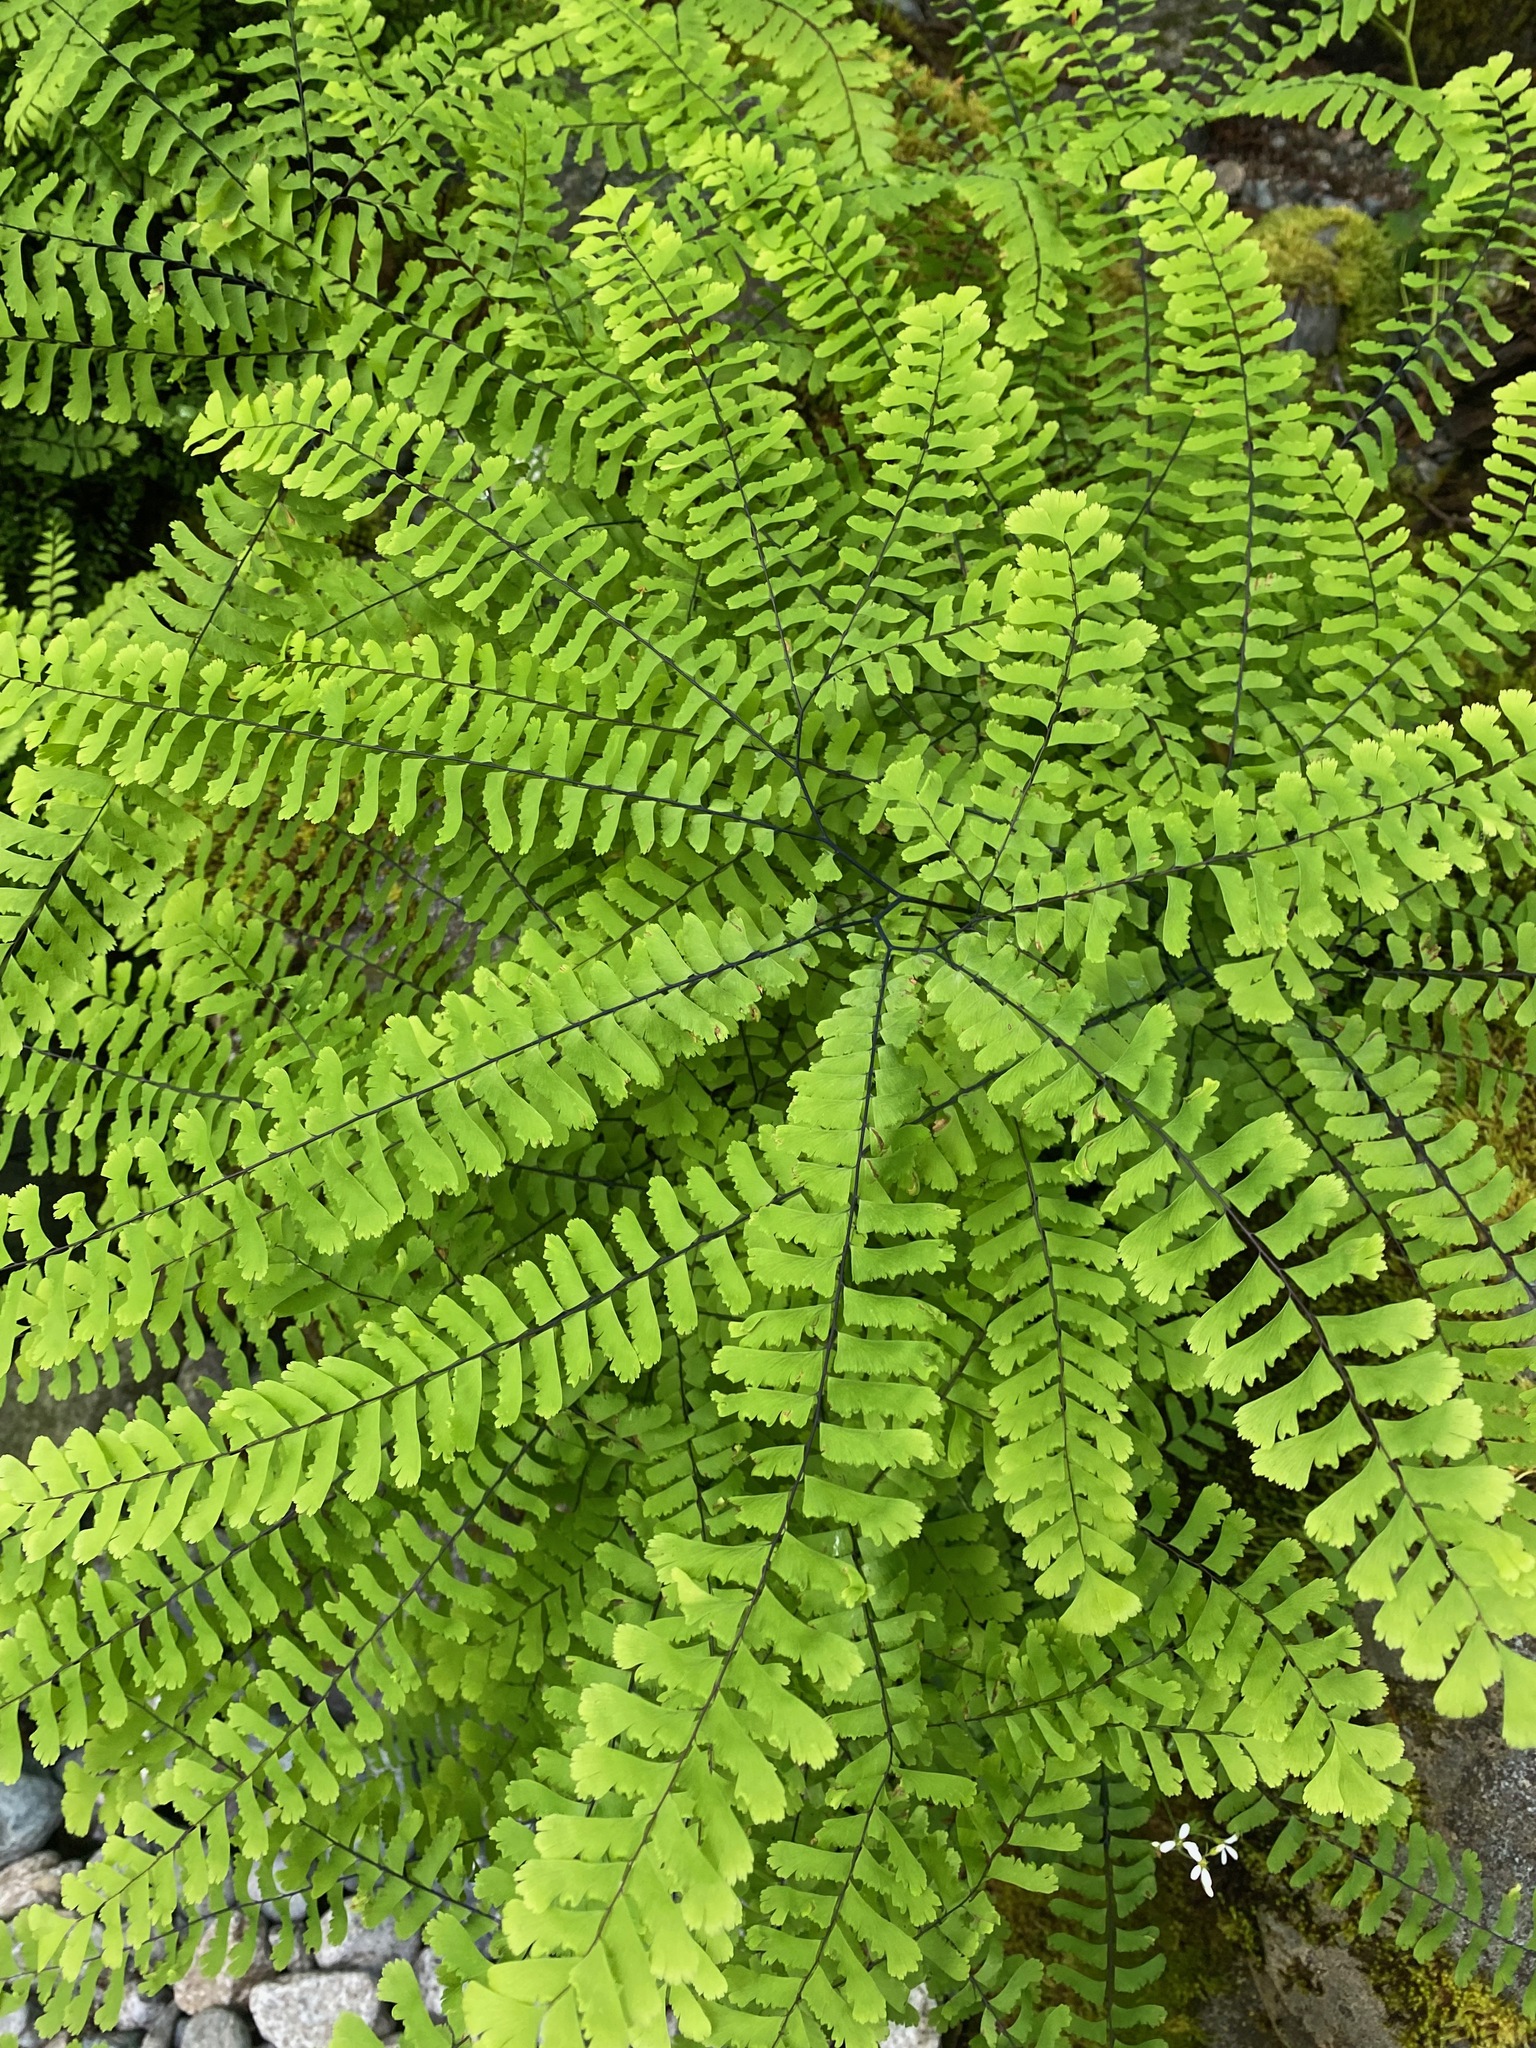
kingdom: Plantae
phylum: Tracheophyta
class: Polypodiopsida
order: Polypodiales
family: Pteridaceae
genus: Adiantum
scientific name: Adiantum aleuticum
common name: Aleutian maidenhair fern
